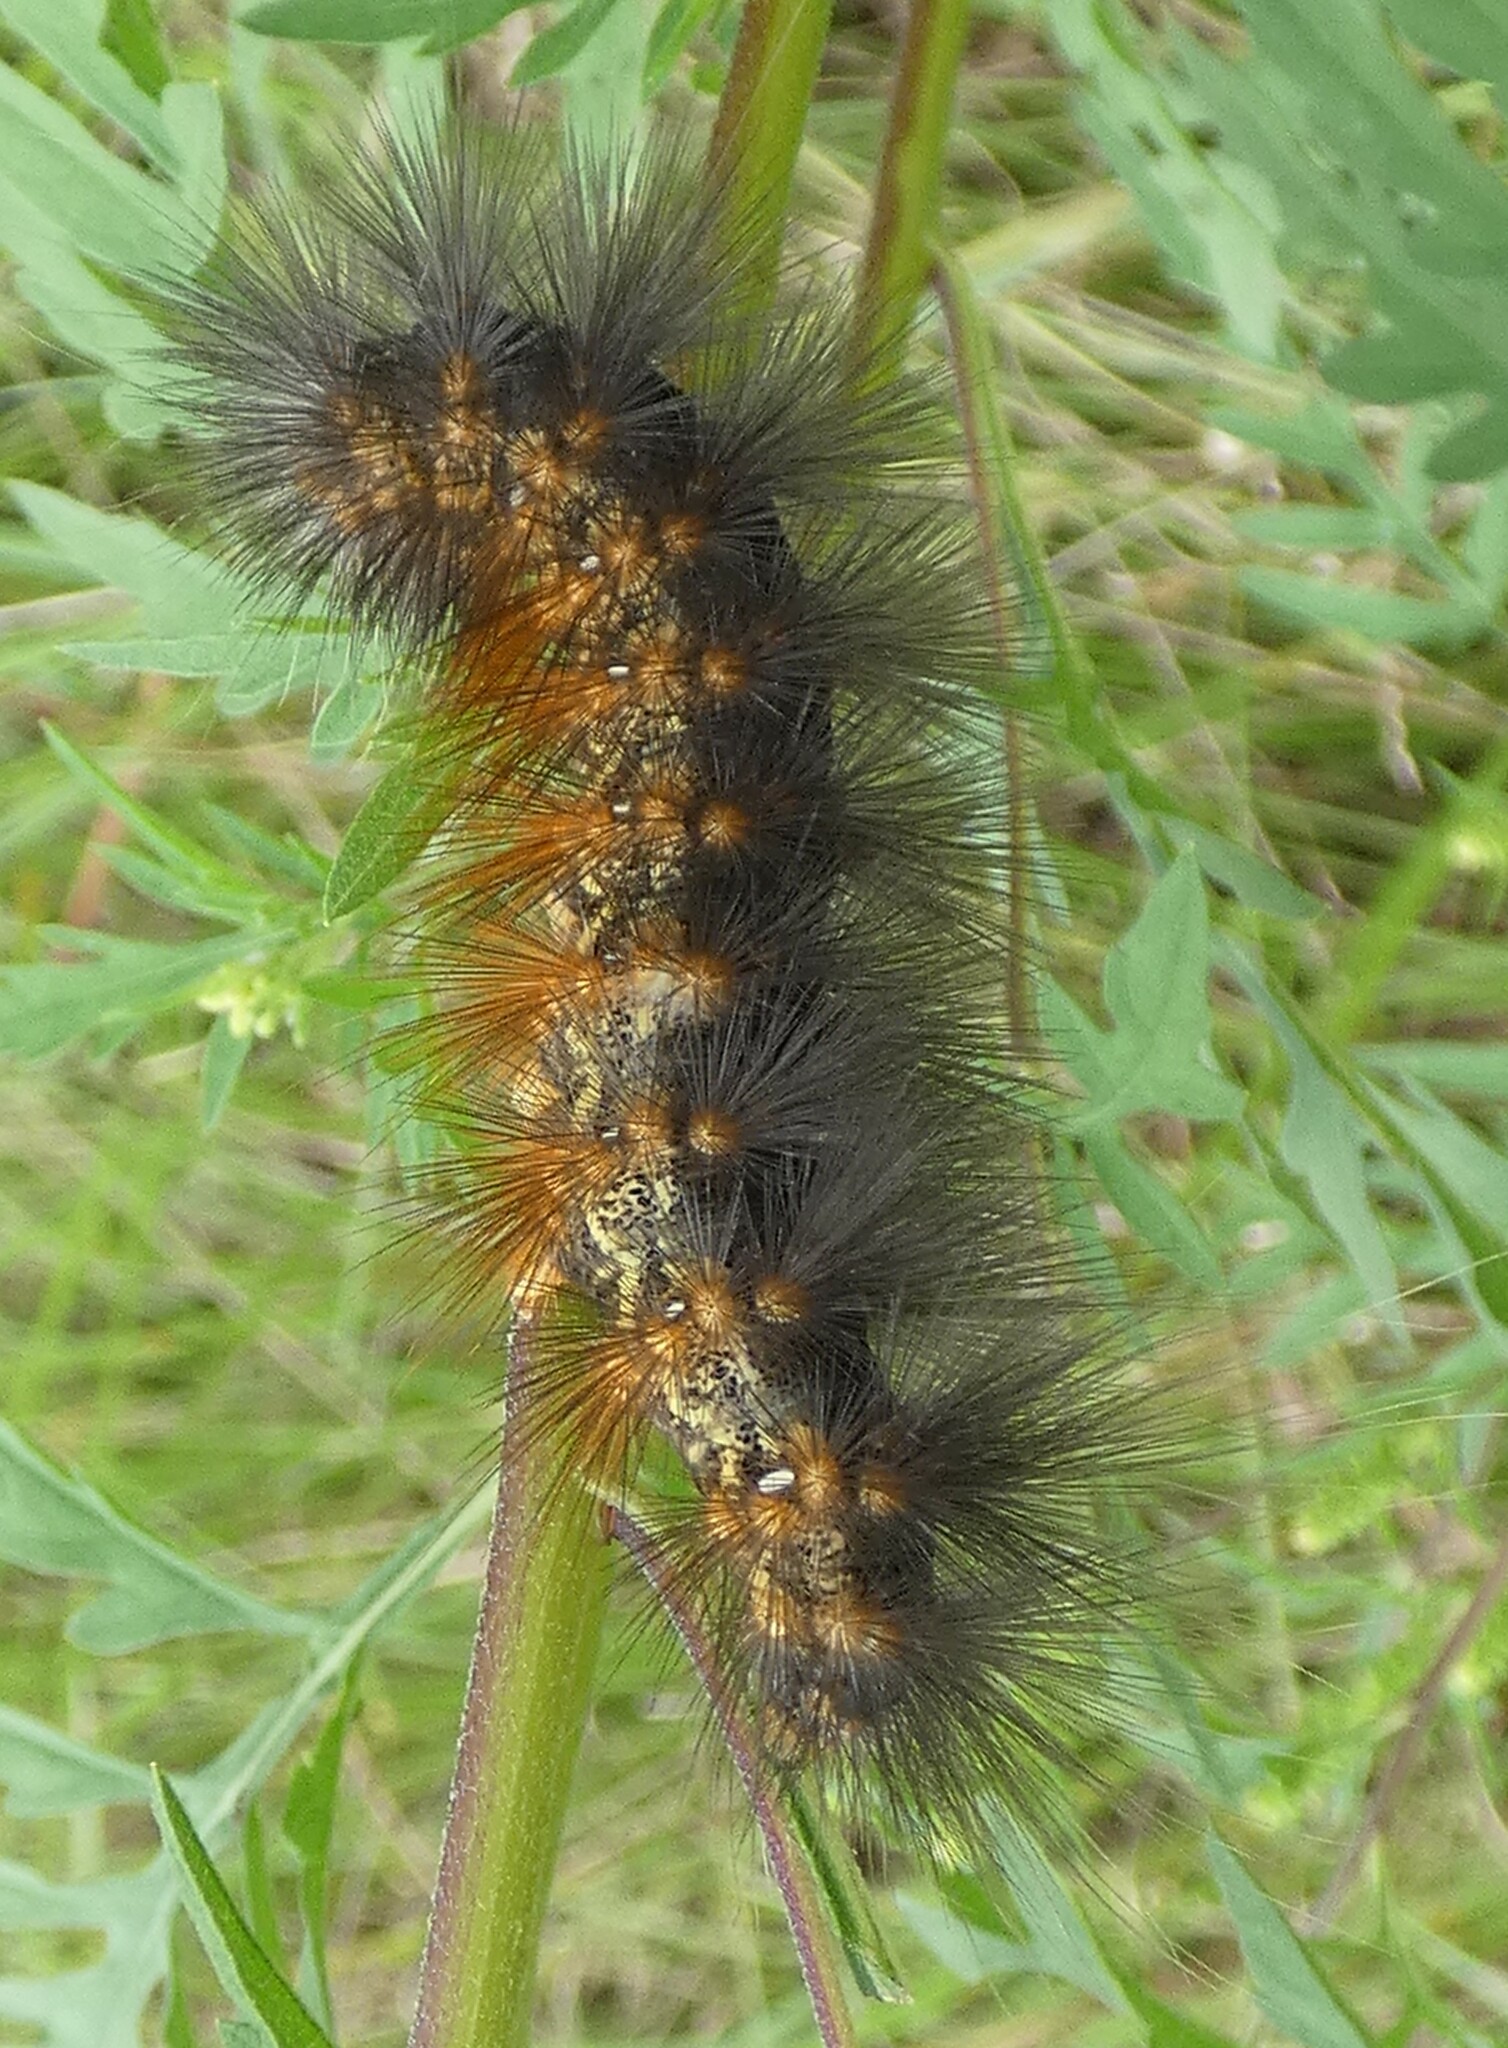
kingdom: Animalia
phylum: Arthropoda
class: Insecta
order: Lepidoptera
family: Erebidae
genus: Estigmene
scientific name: Estigmene acrea
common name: Salt marsh moth
